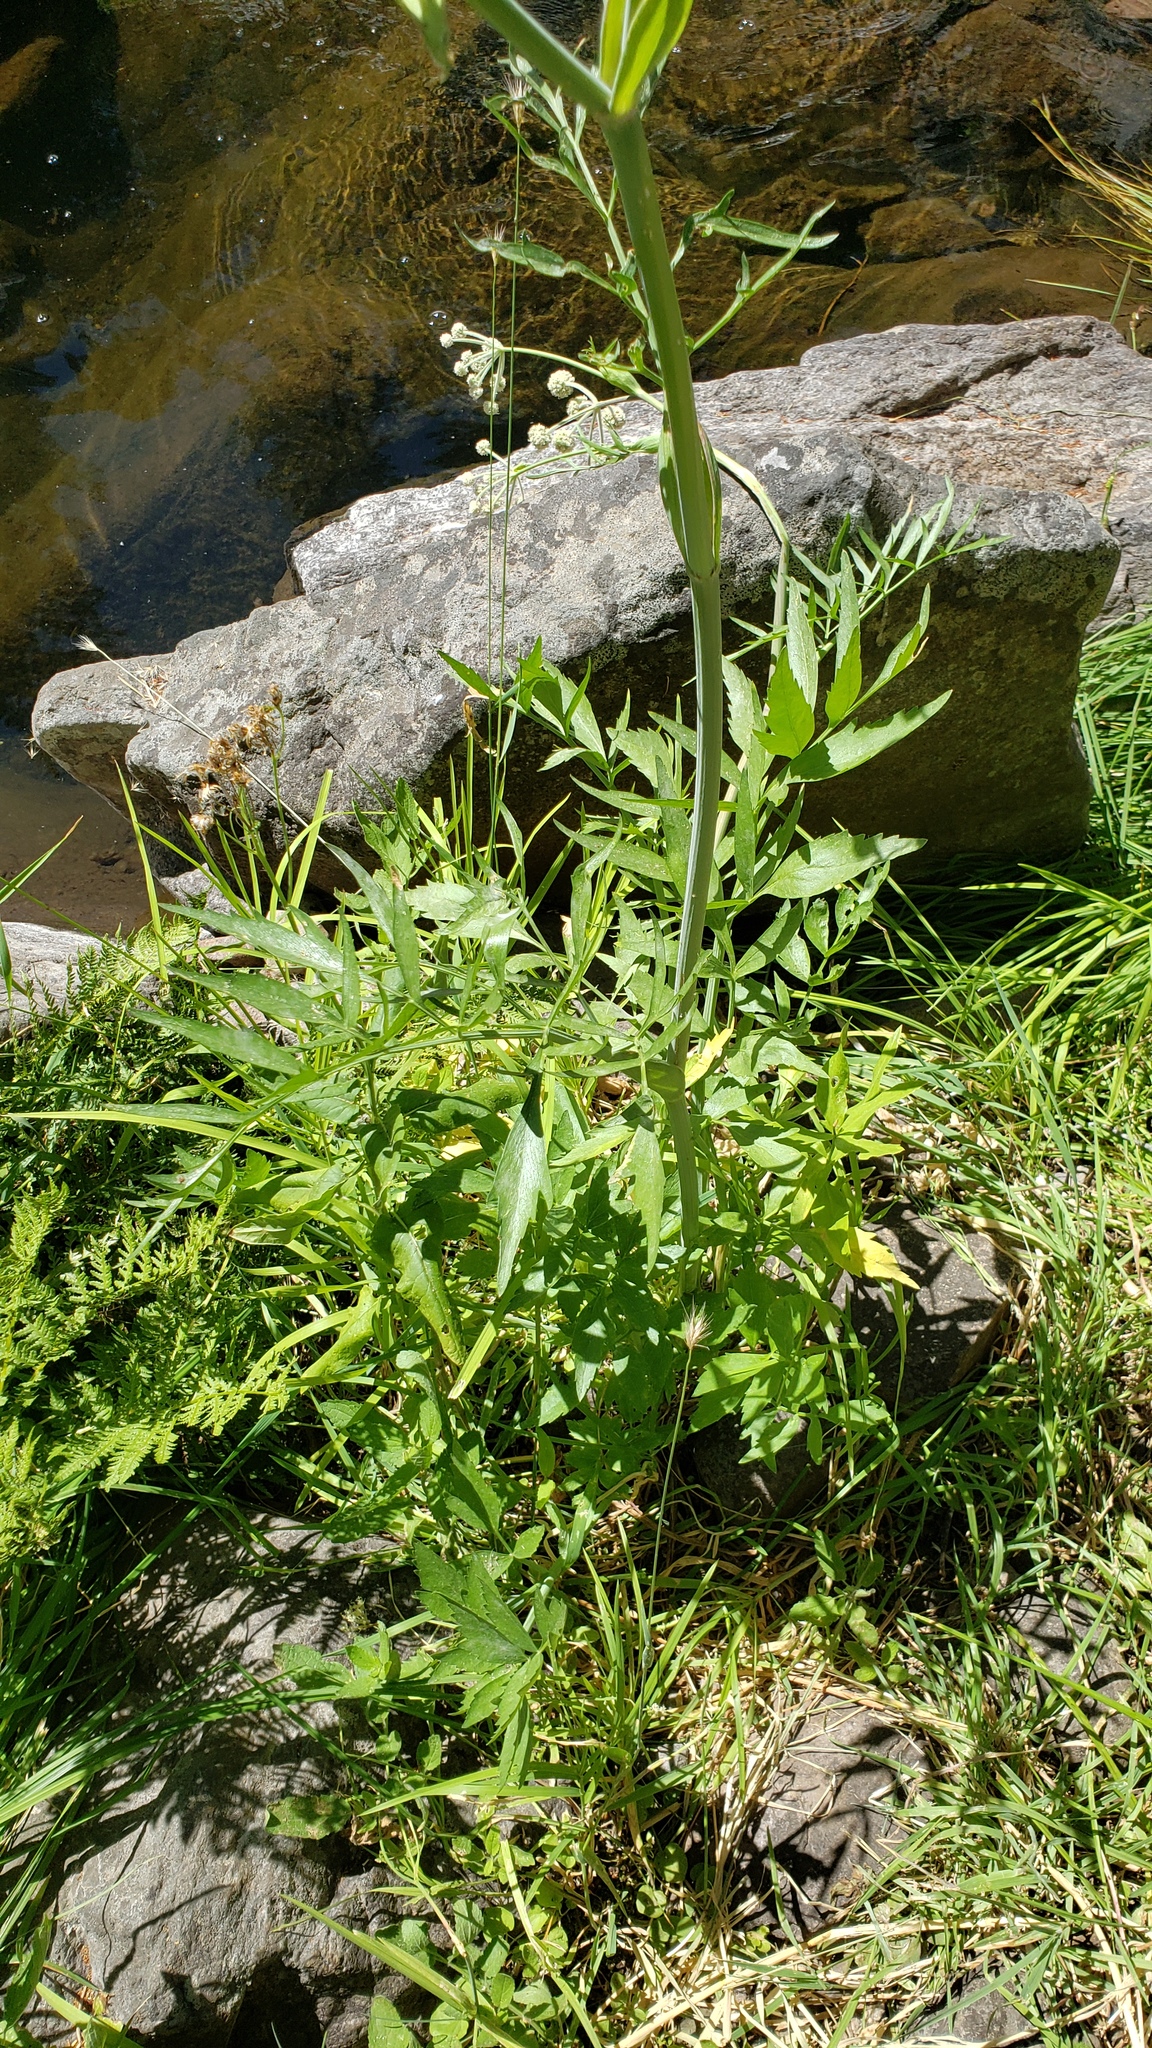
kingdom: Plantae
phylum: Tracheophyta
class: Magnoliopsida
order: Apiales
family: Apiaceae
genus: Angelica
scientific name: Angelica capitellata
